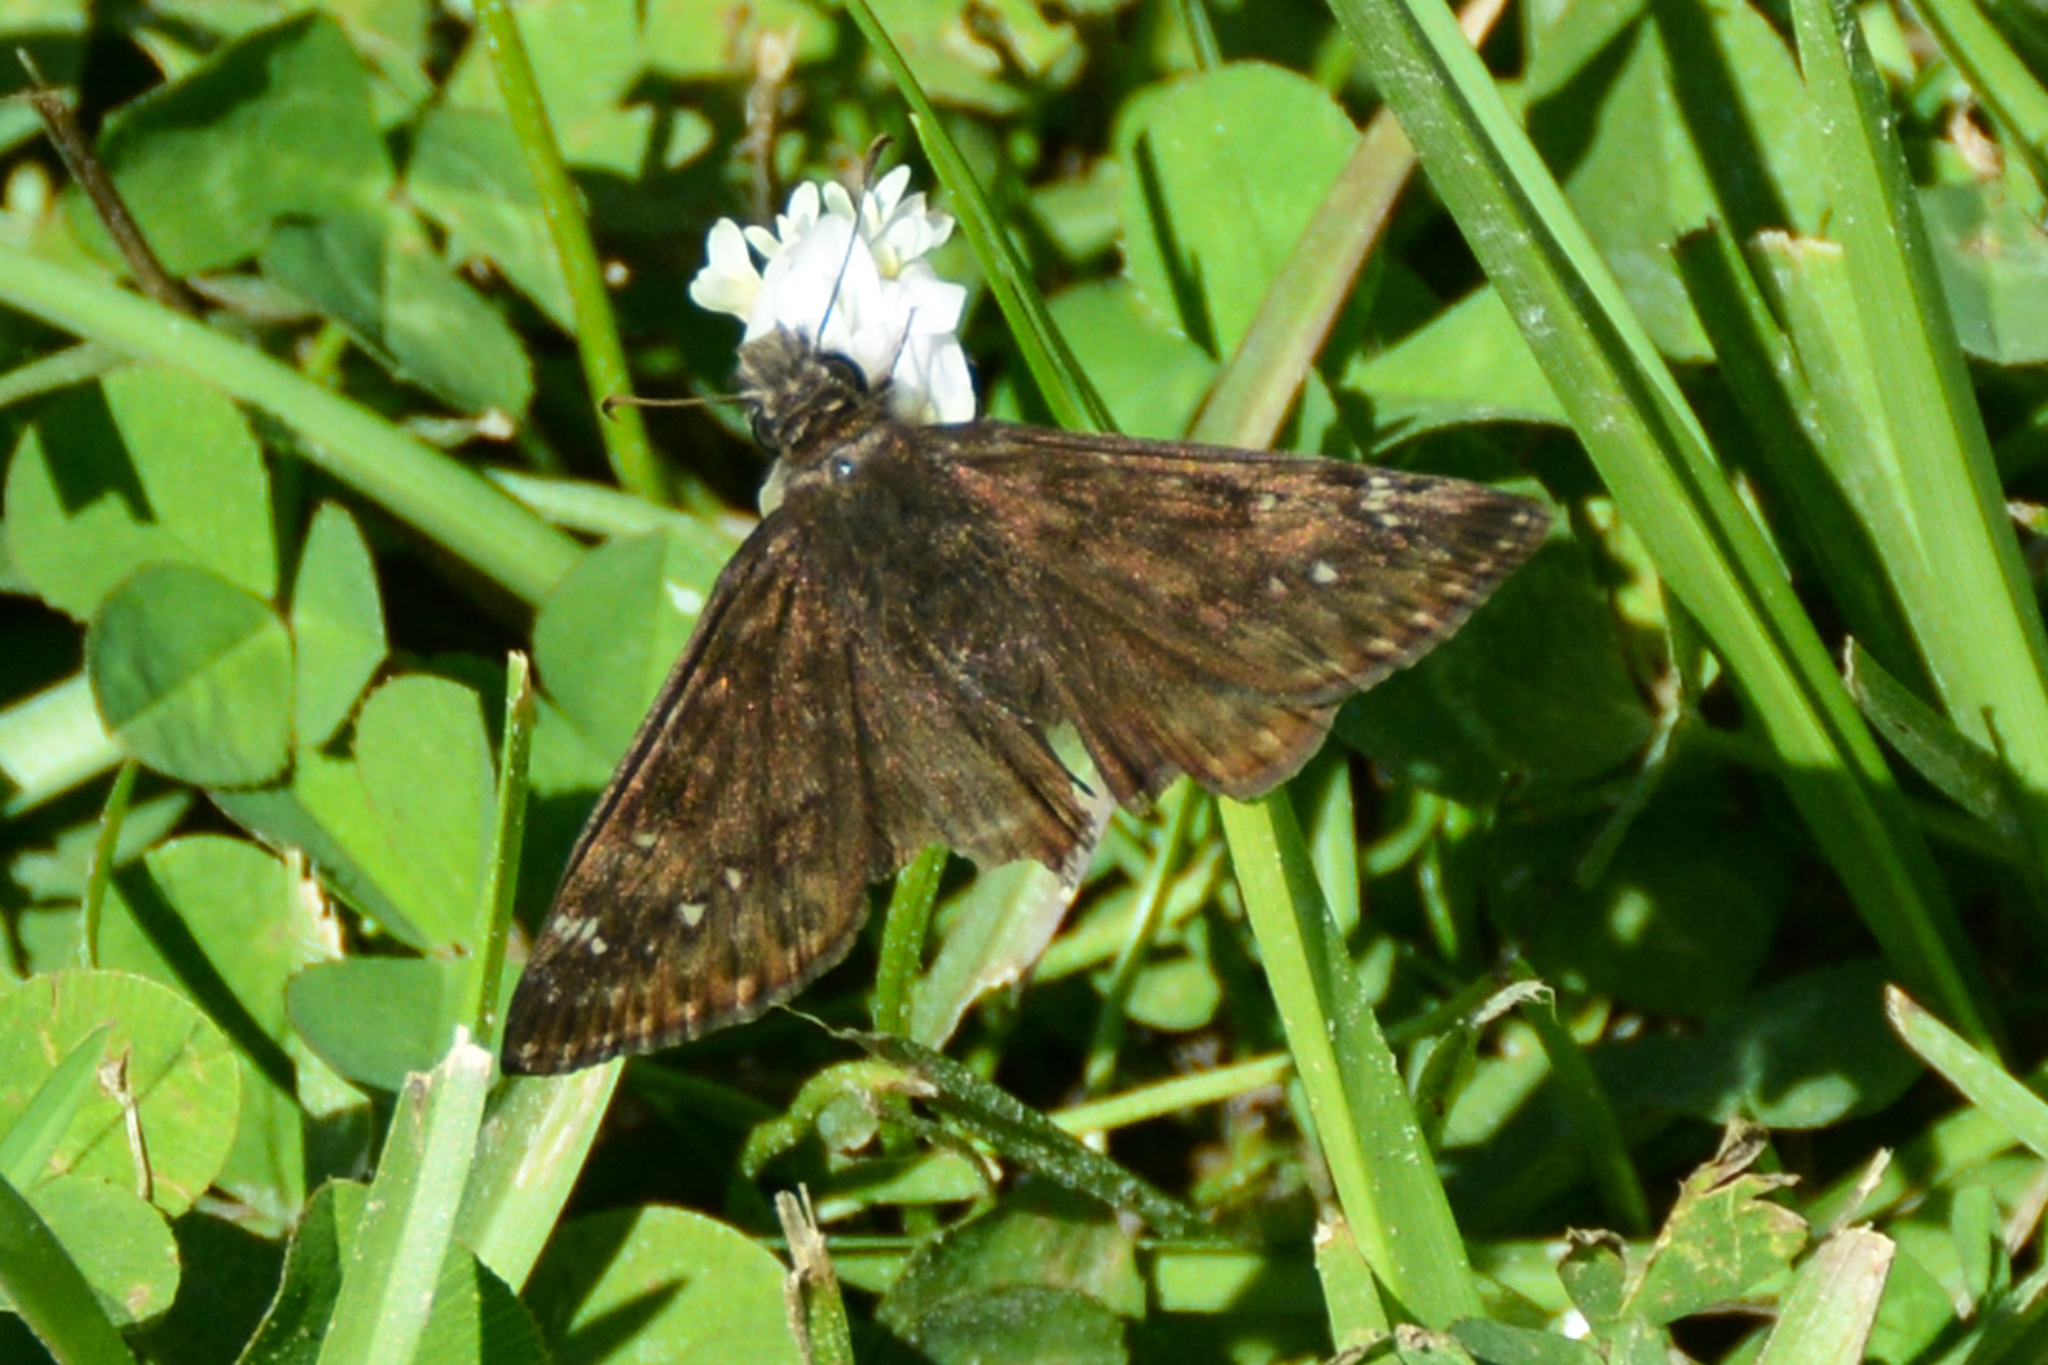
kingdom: Animalia
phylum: Arthropoda
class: Insecta
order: Lepidoptera
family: Hesperiidae
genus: Erynnis
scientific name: Erynnis horatius
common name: Horace's duskywing
